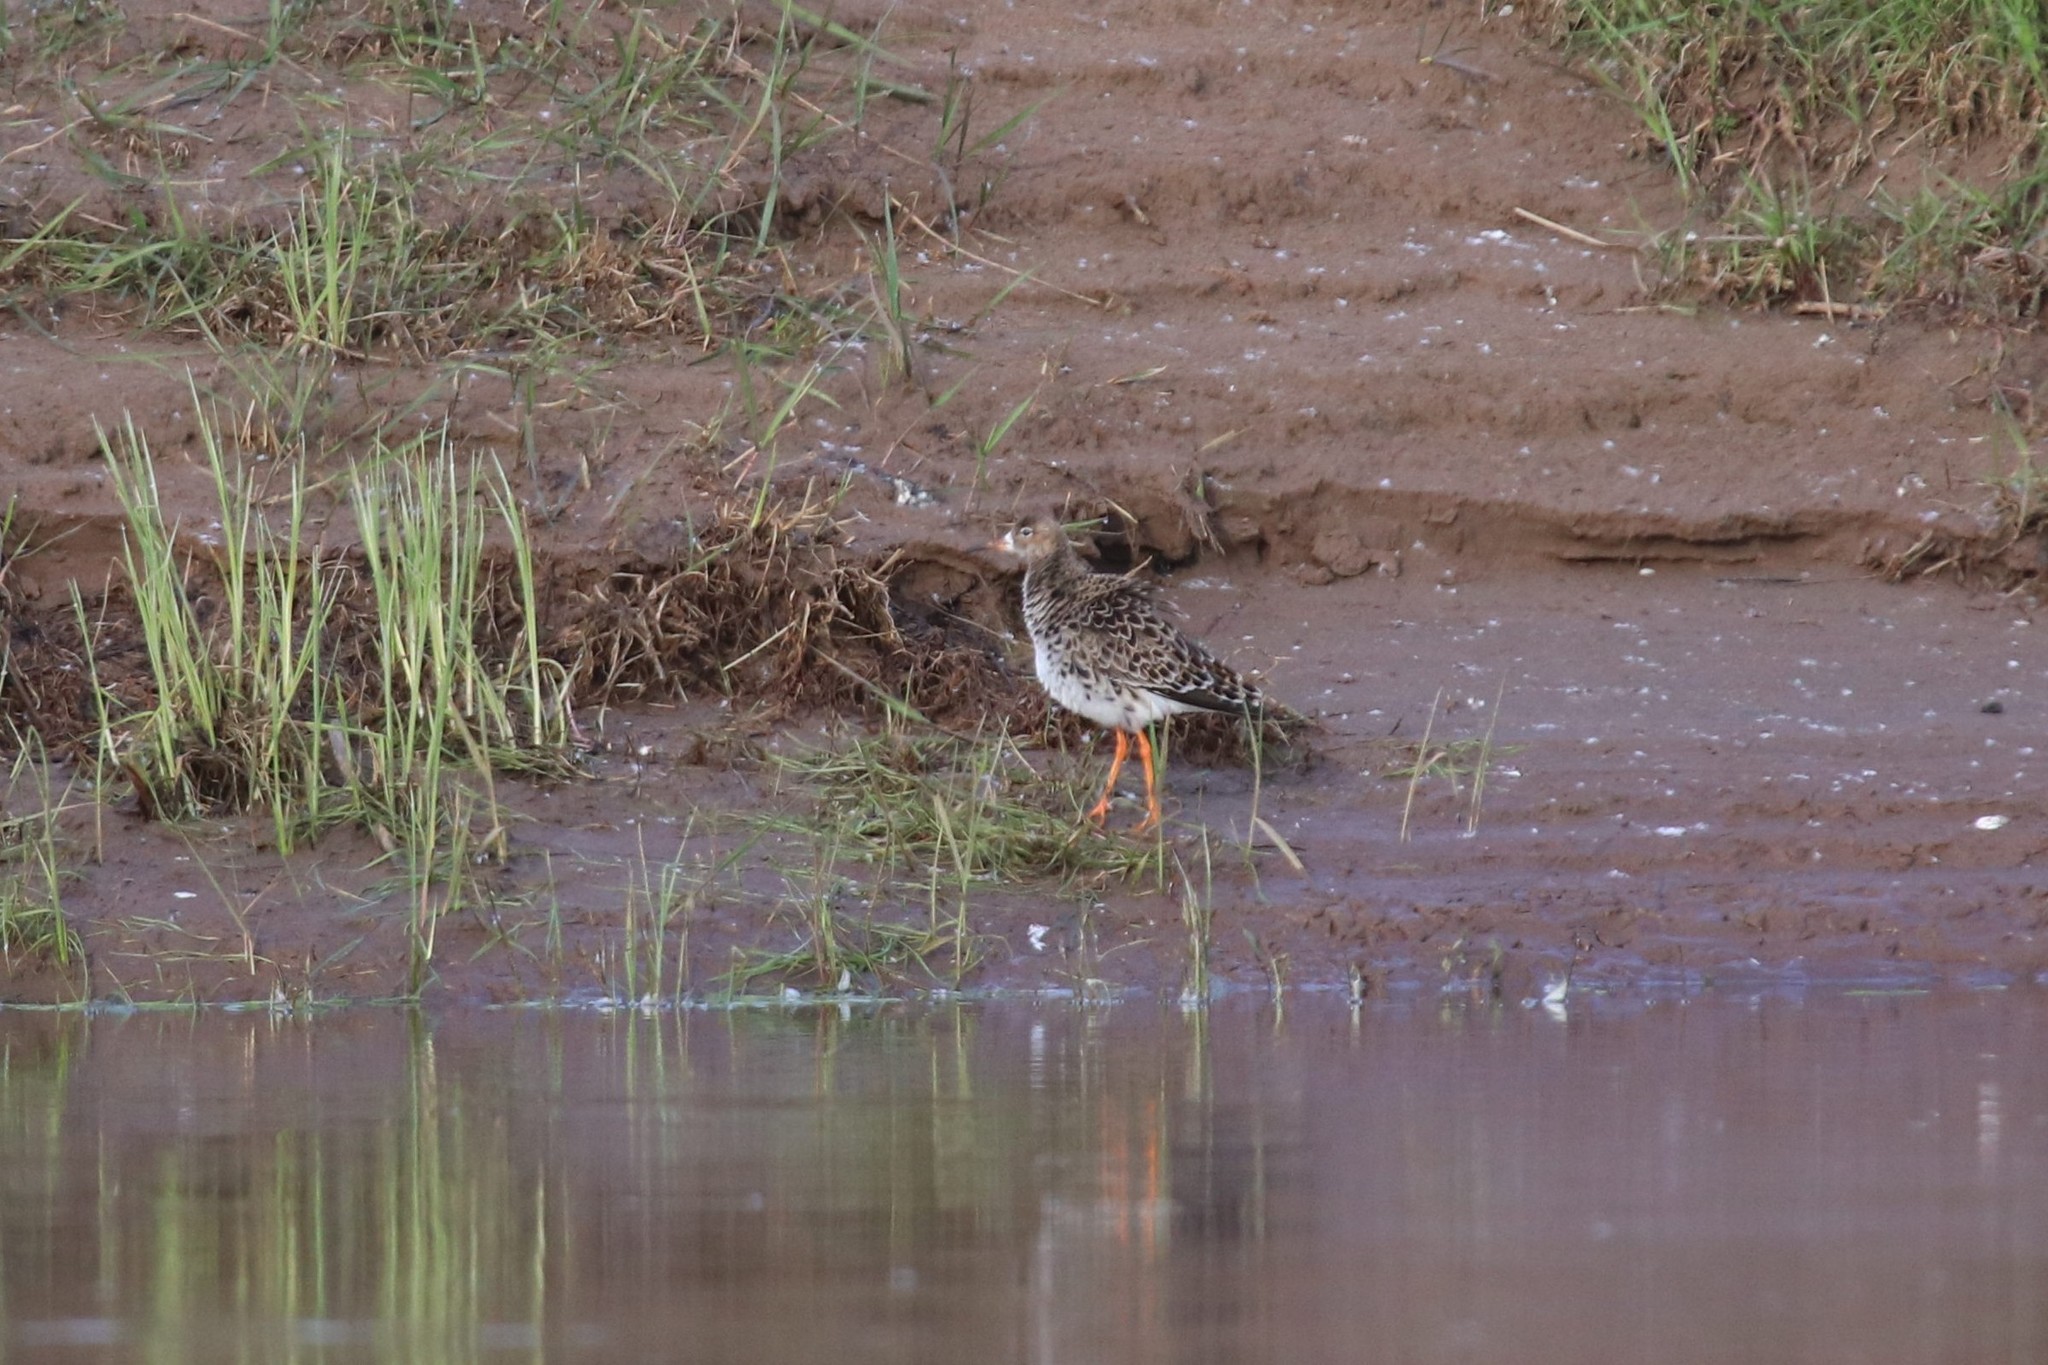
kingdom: Animalia
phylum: Chordata
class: Aves
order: Charadriiformes
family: Scolopacidae
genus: Calidris
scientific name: Calidris pugnax
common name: Ruff
